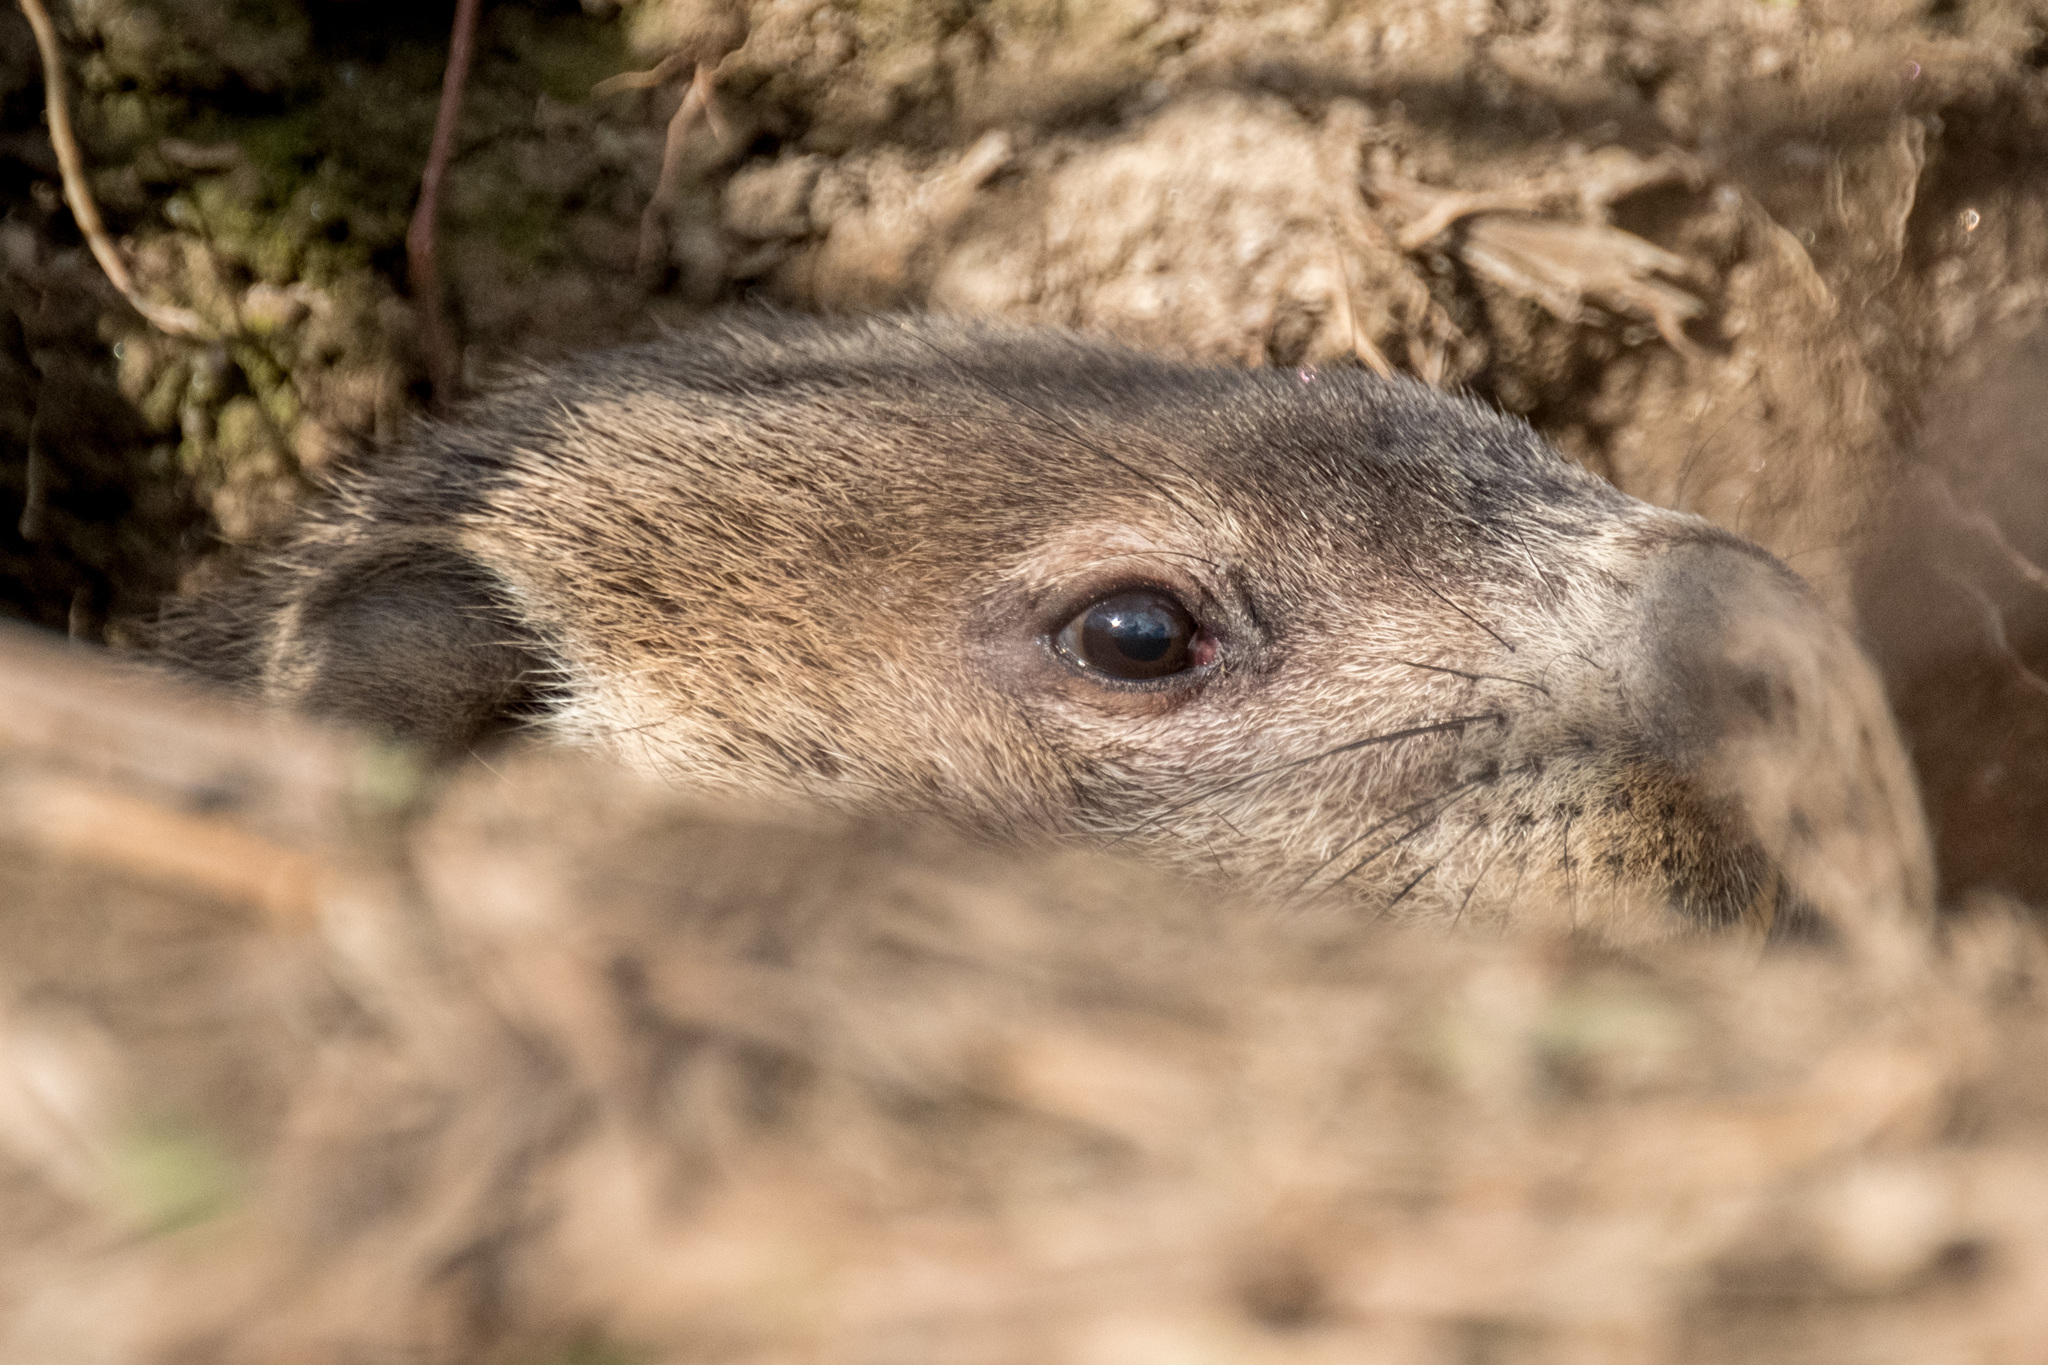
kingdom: Animalia
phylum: Chordata
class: Mammalia
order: Rodentia
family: Sciuridae
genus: Marmota
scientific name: Marmota monax
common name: Groundhog
